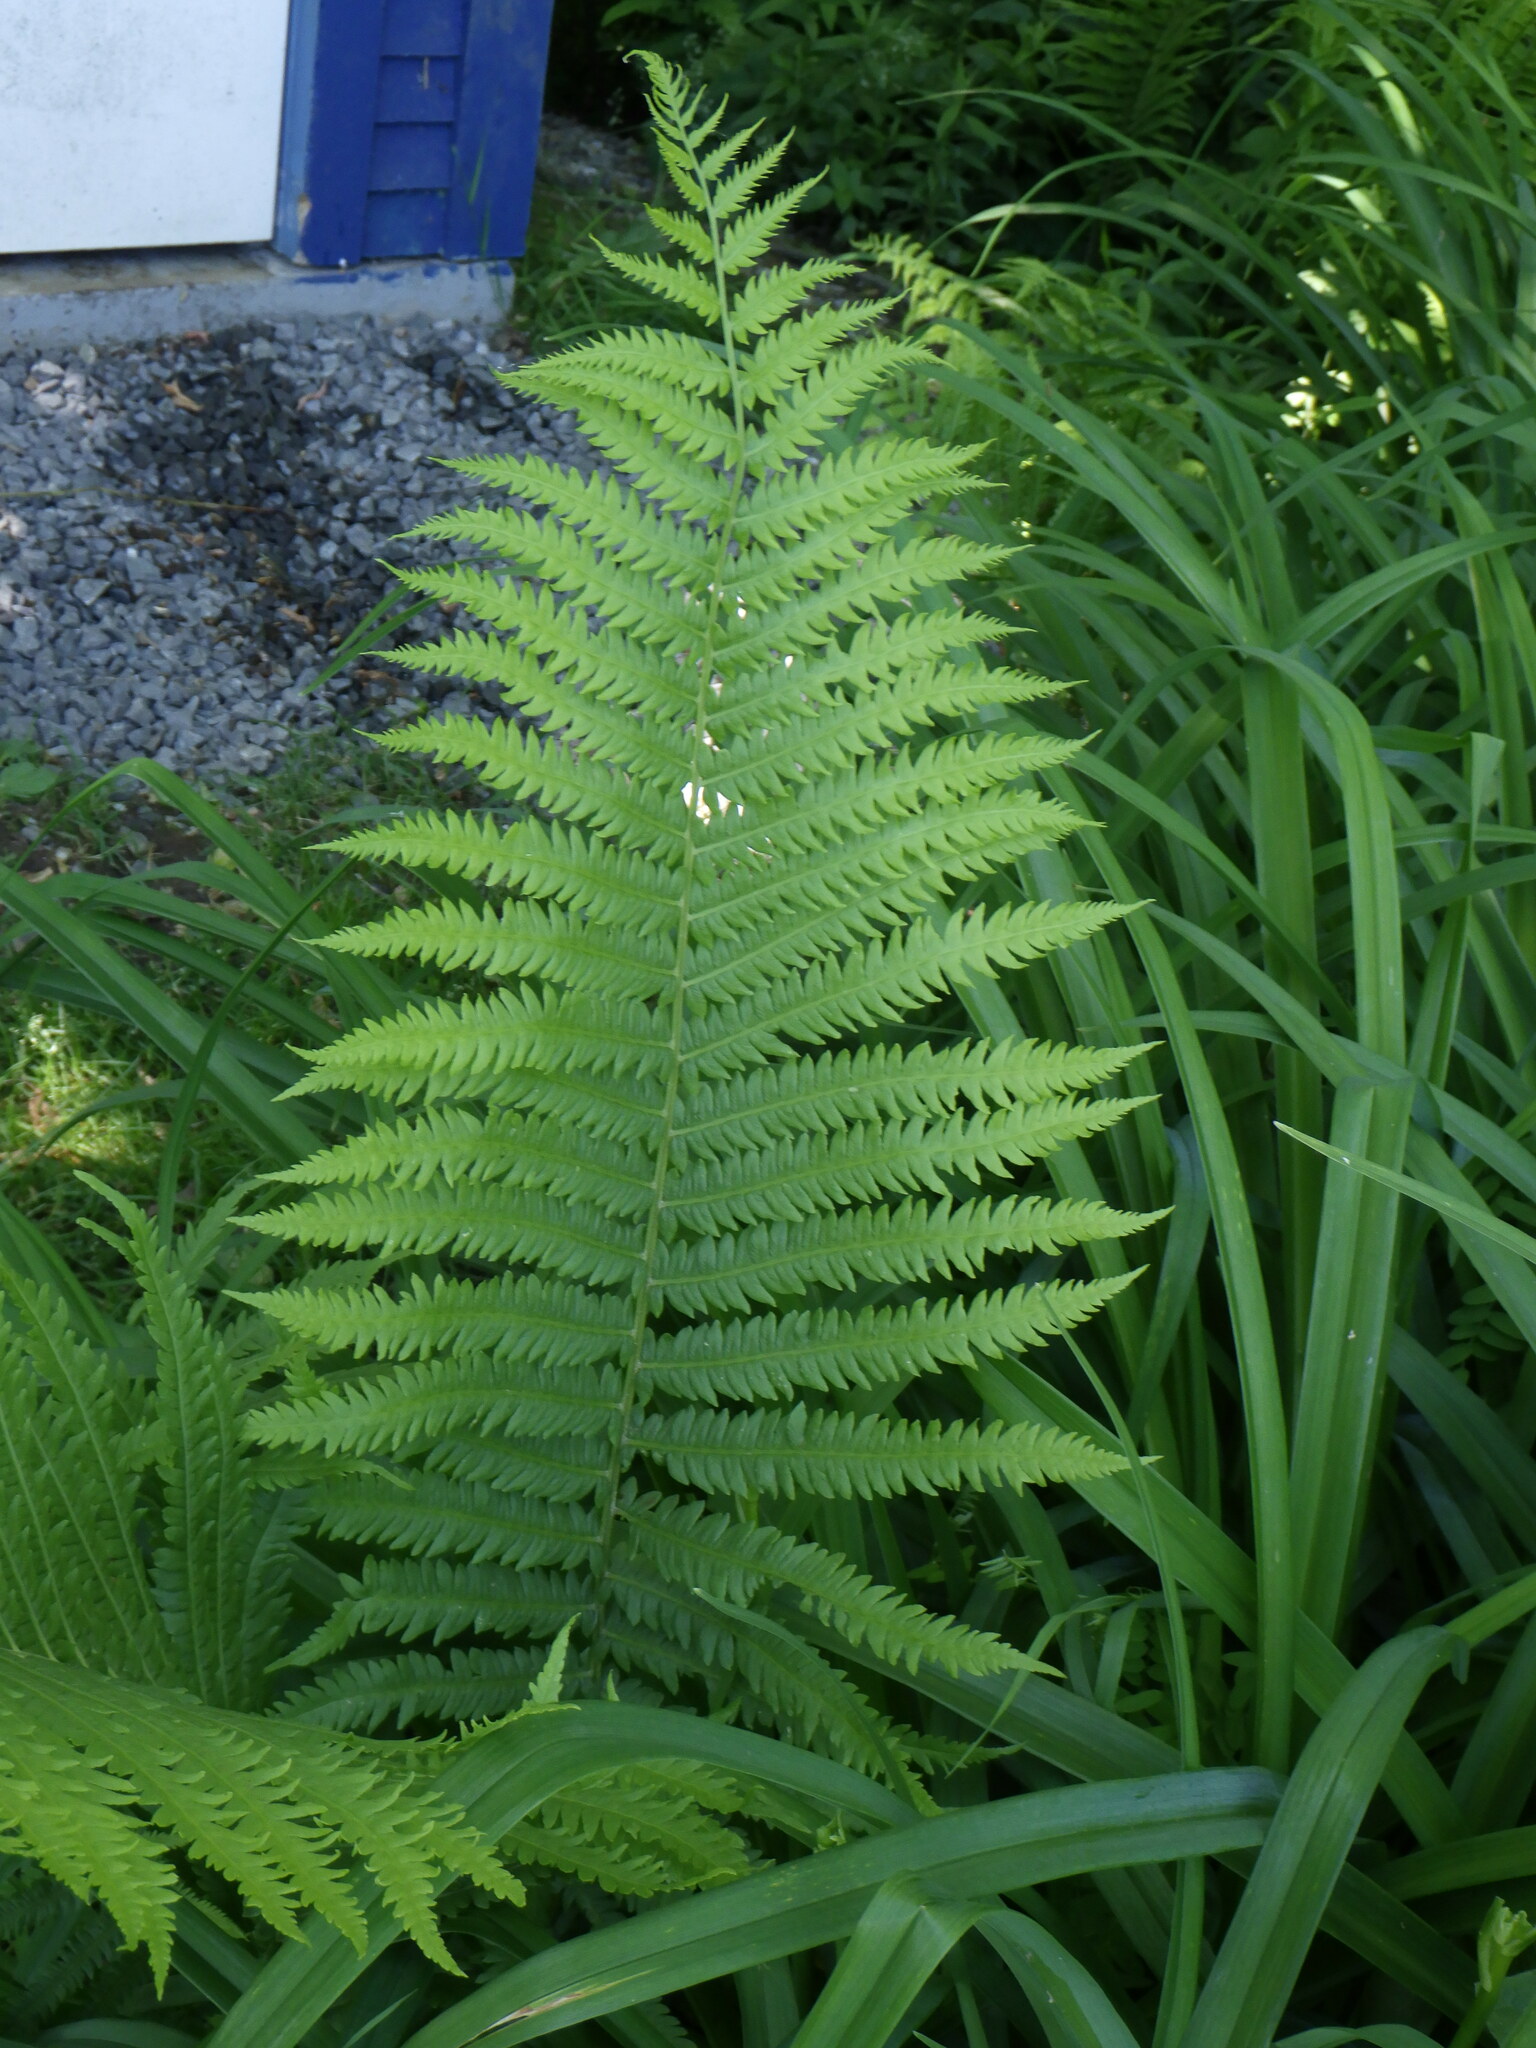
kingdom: Plantae
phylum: Tracheophyta
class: Polypodiopsida
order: Polypodiales
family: Onocleaceae
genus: Matteuccia
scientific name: Matteuccia struthiopteris
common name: Ostrich fern
